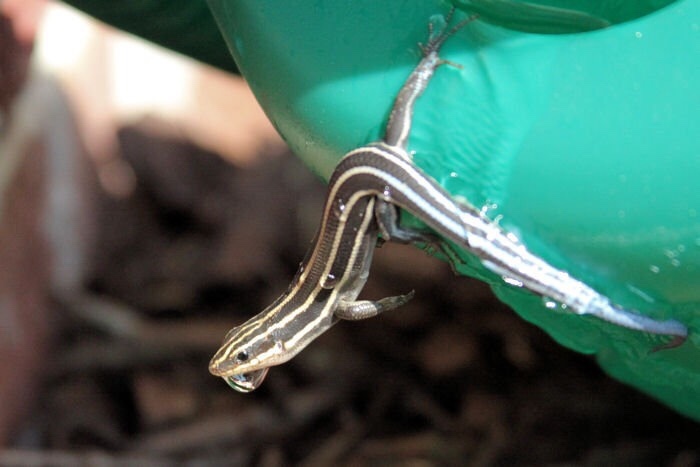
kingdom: Animalia
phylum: Chordata
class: Squamata
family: Scincidae
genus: Plestiodon
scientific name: Plestiodon fasciatus
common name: Five-lined skink
